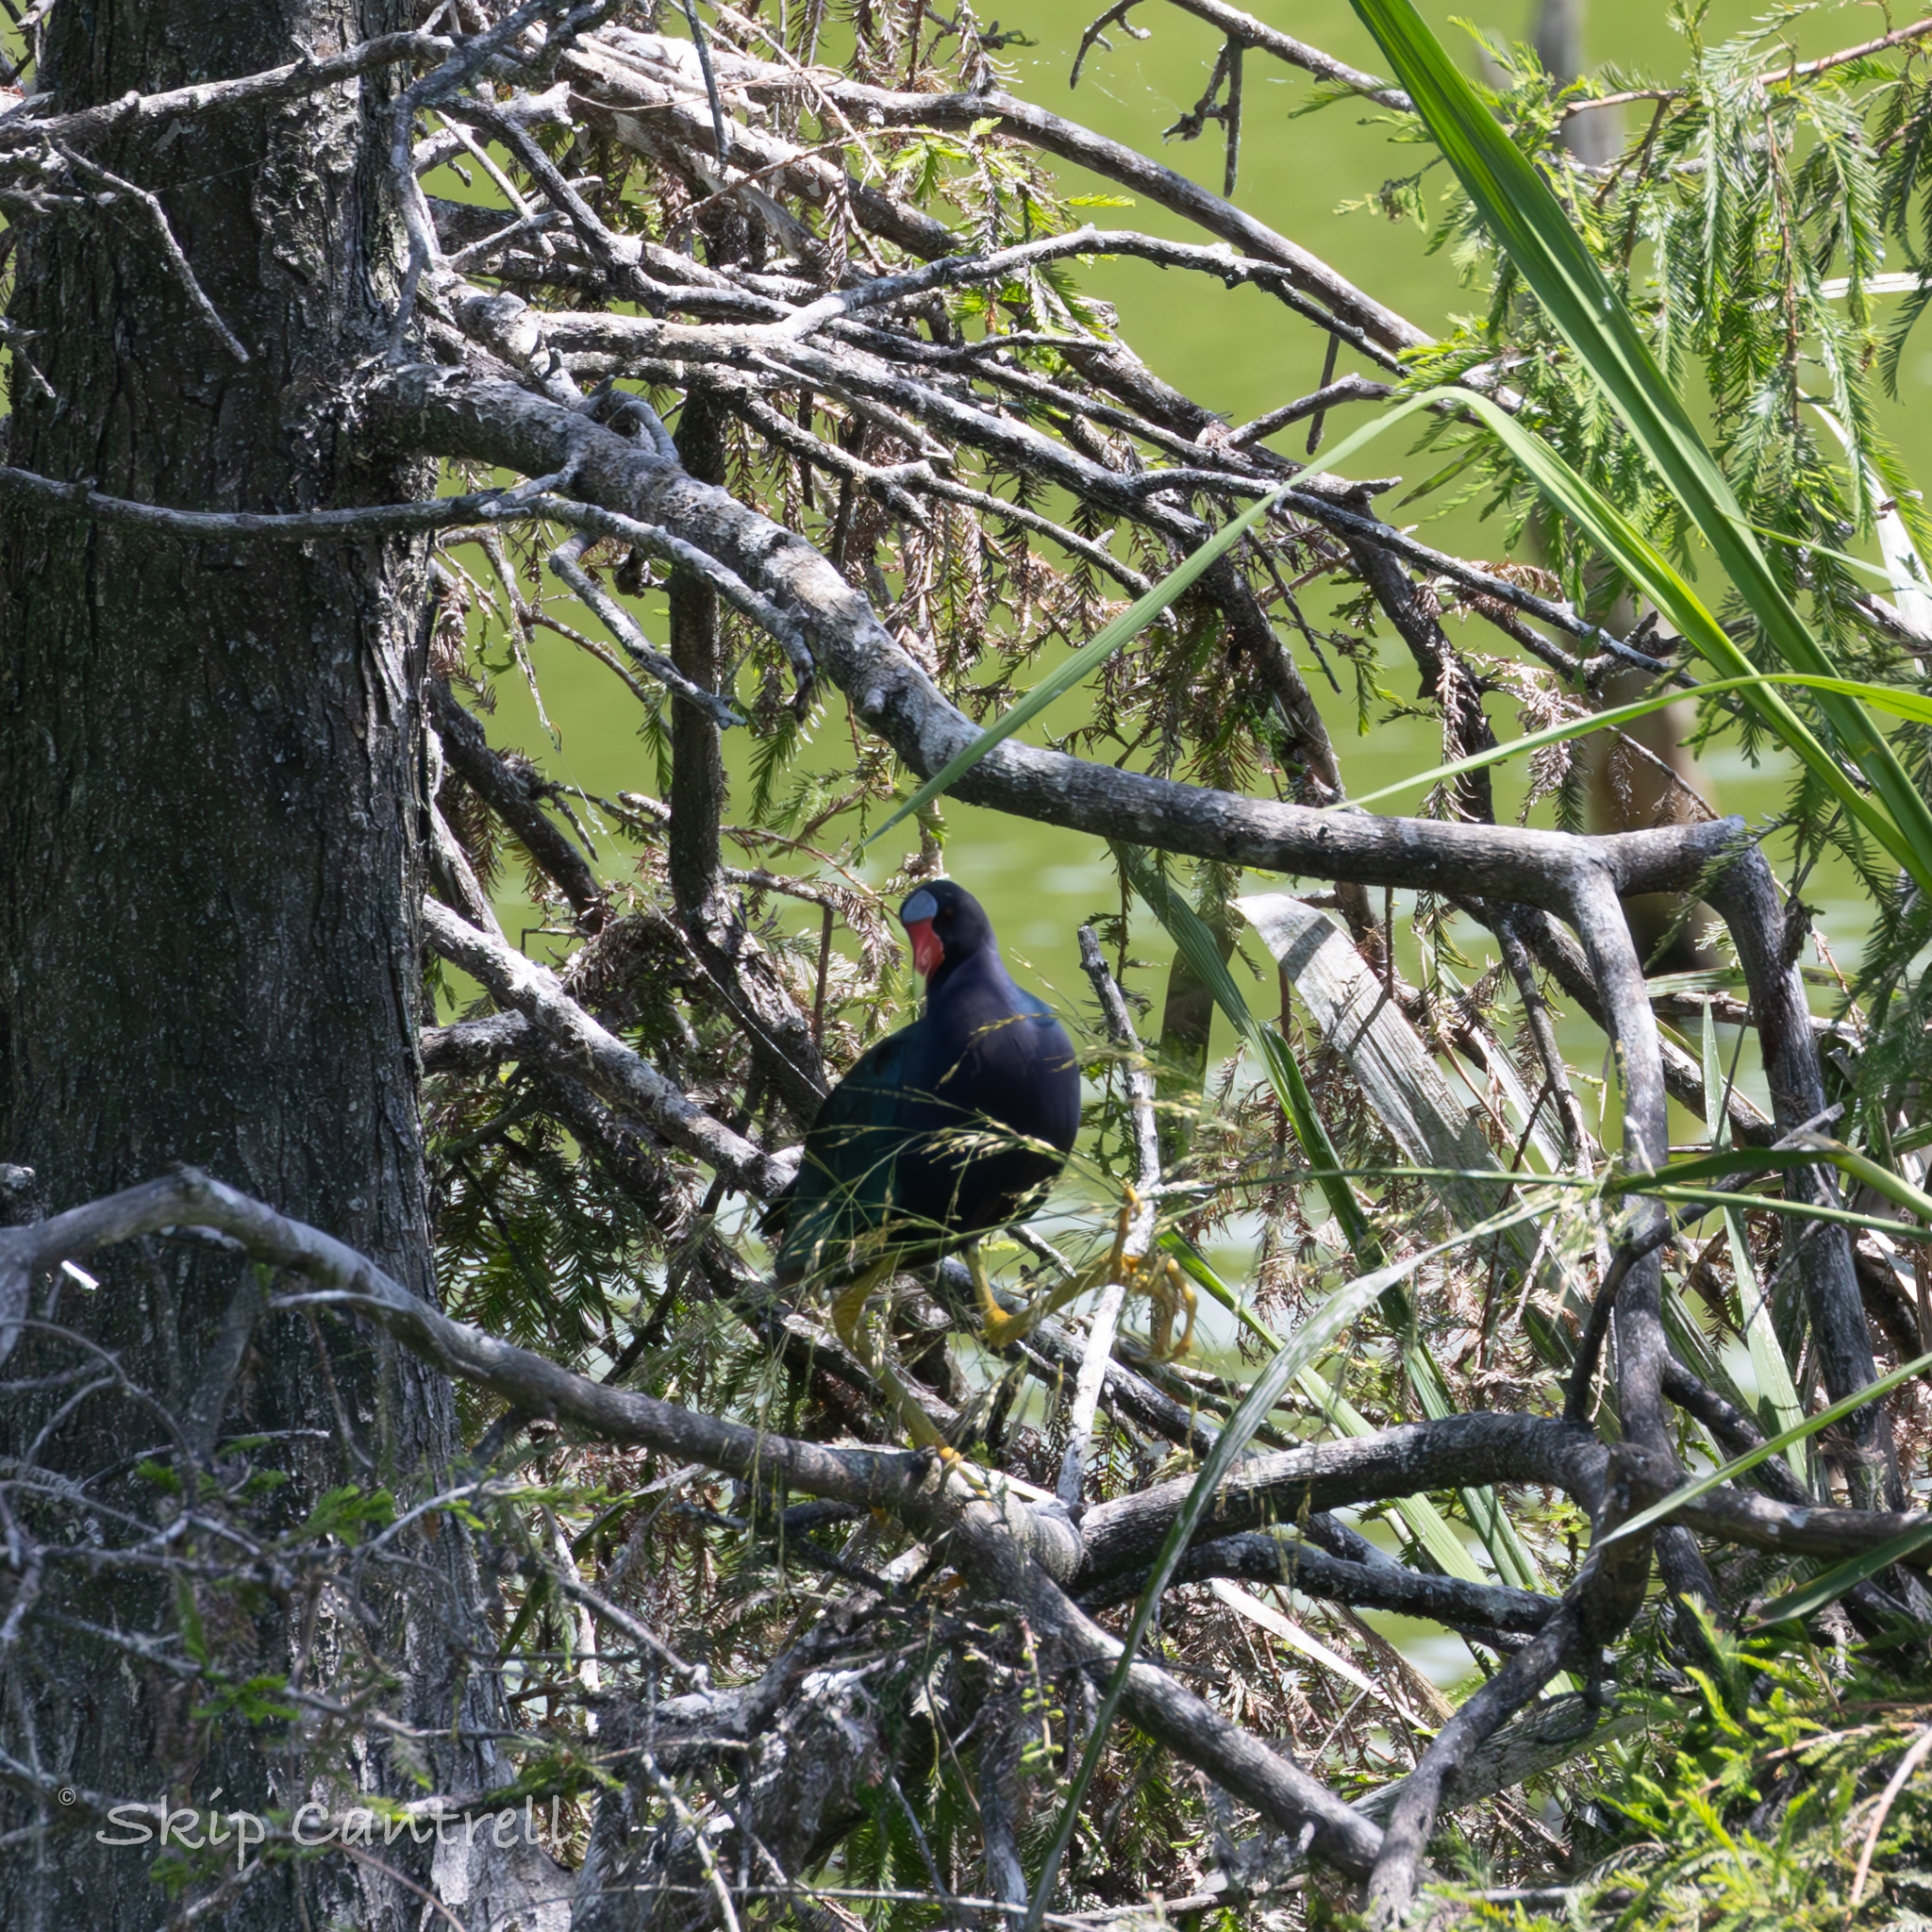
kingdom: Animalia
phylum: Chordata
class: Aves
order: Gruiformes
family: Rallidae
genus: Porphyrio
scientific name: Porphyrio martinica
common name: Purple gallinule
